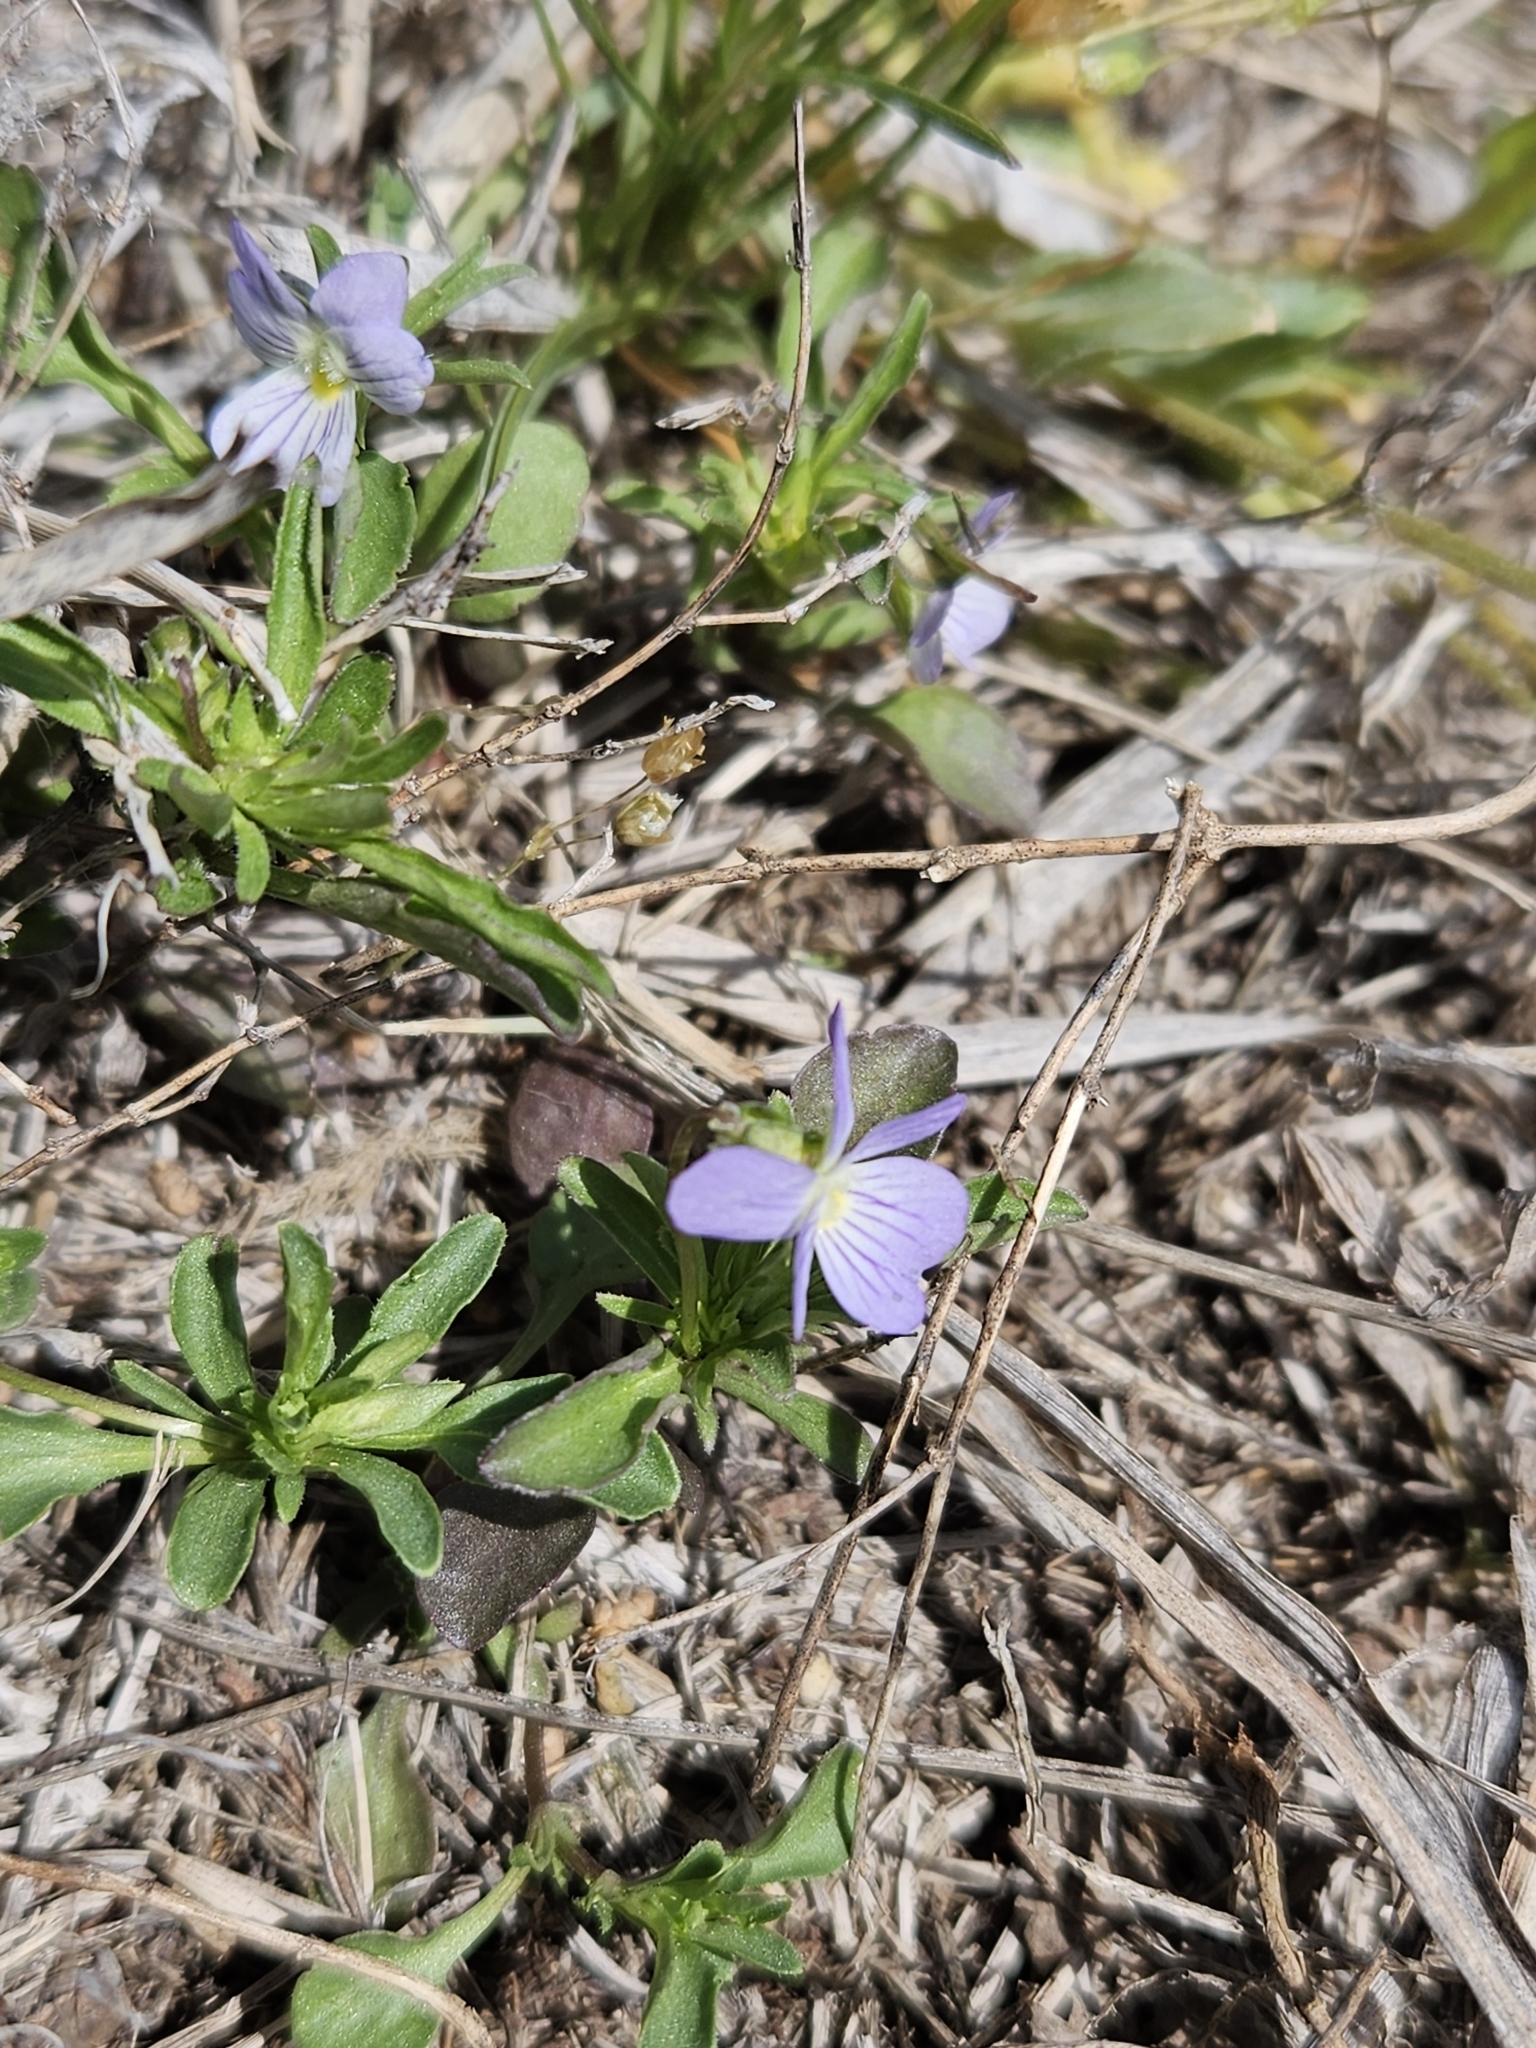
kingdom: Plantae
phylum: Tracheophyta
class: Magnoliopsida
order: Malpighiales
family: Violaceae
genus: Viola
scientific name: Viola rafinesquei
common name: American field pansy
